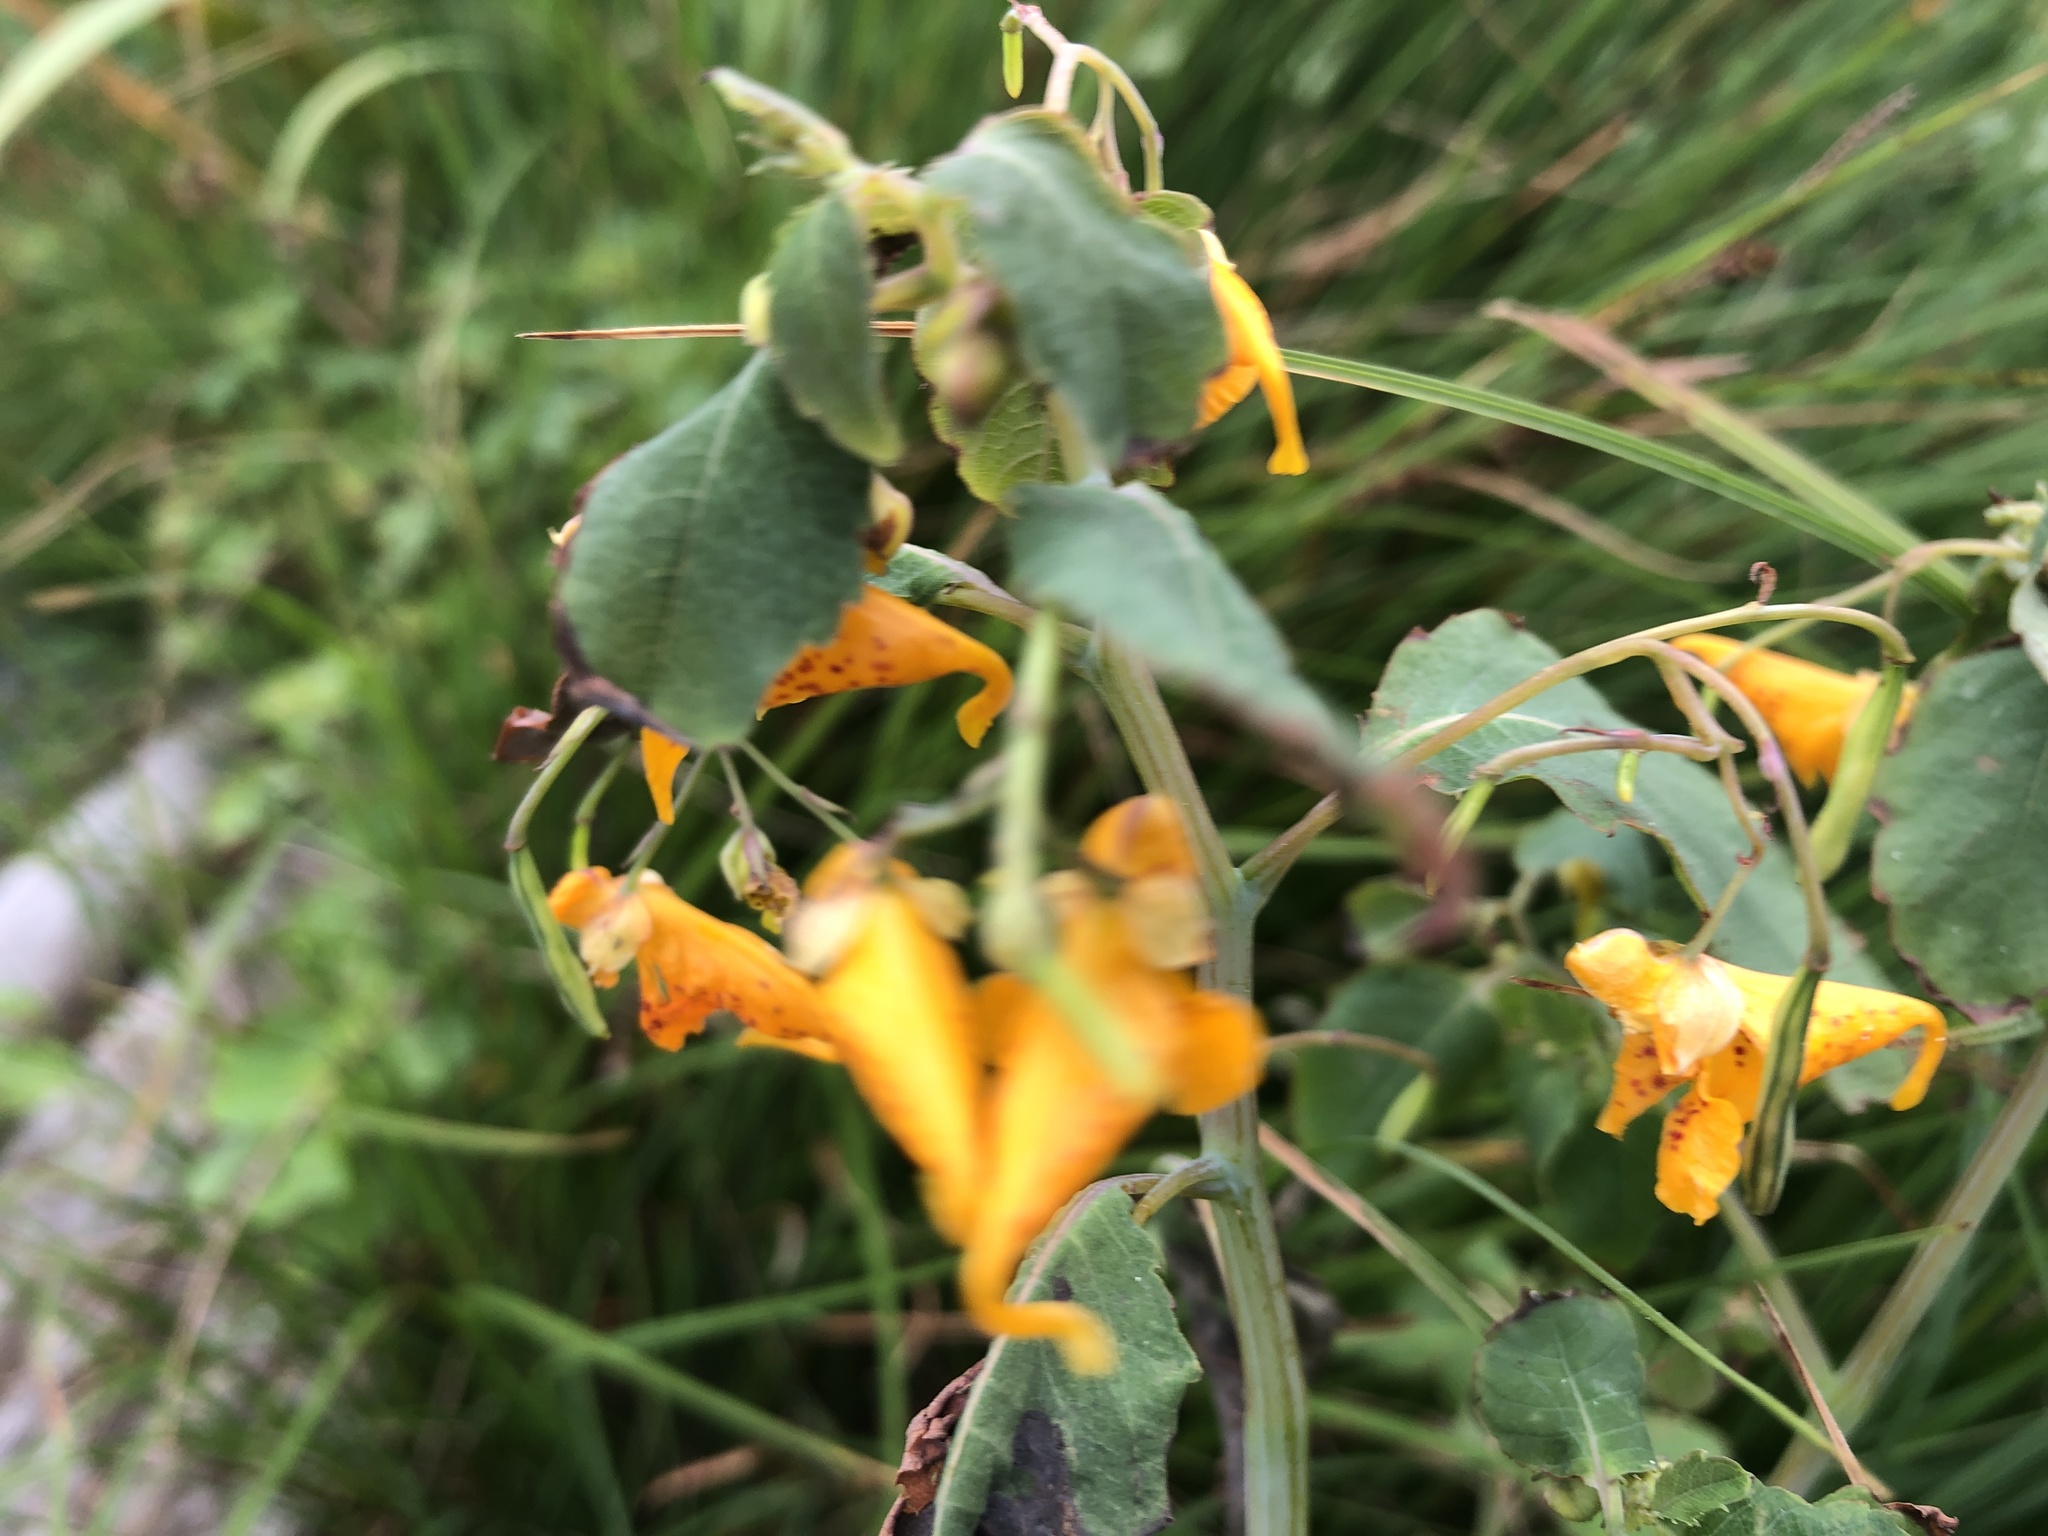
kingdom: Plantae
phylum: Tracheophyta
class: Magnoliopsida
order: Ericales
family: Balsaminaceae
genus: Impatiens
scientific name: Impatiens capensis
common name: Orange balsam
